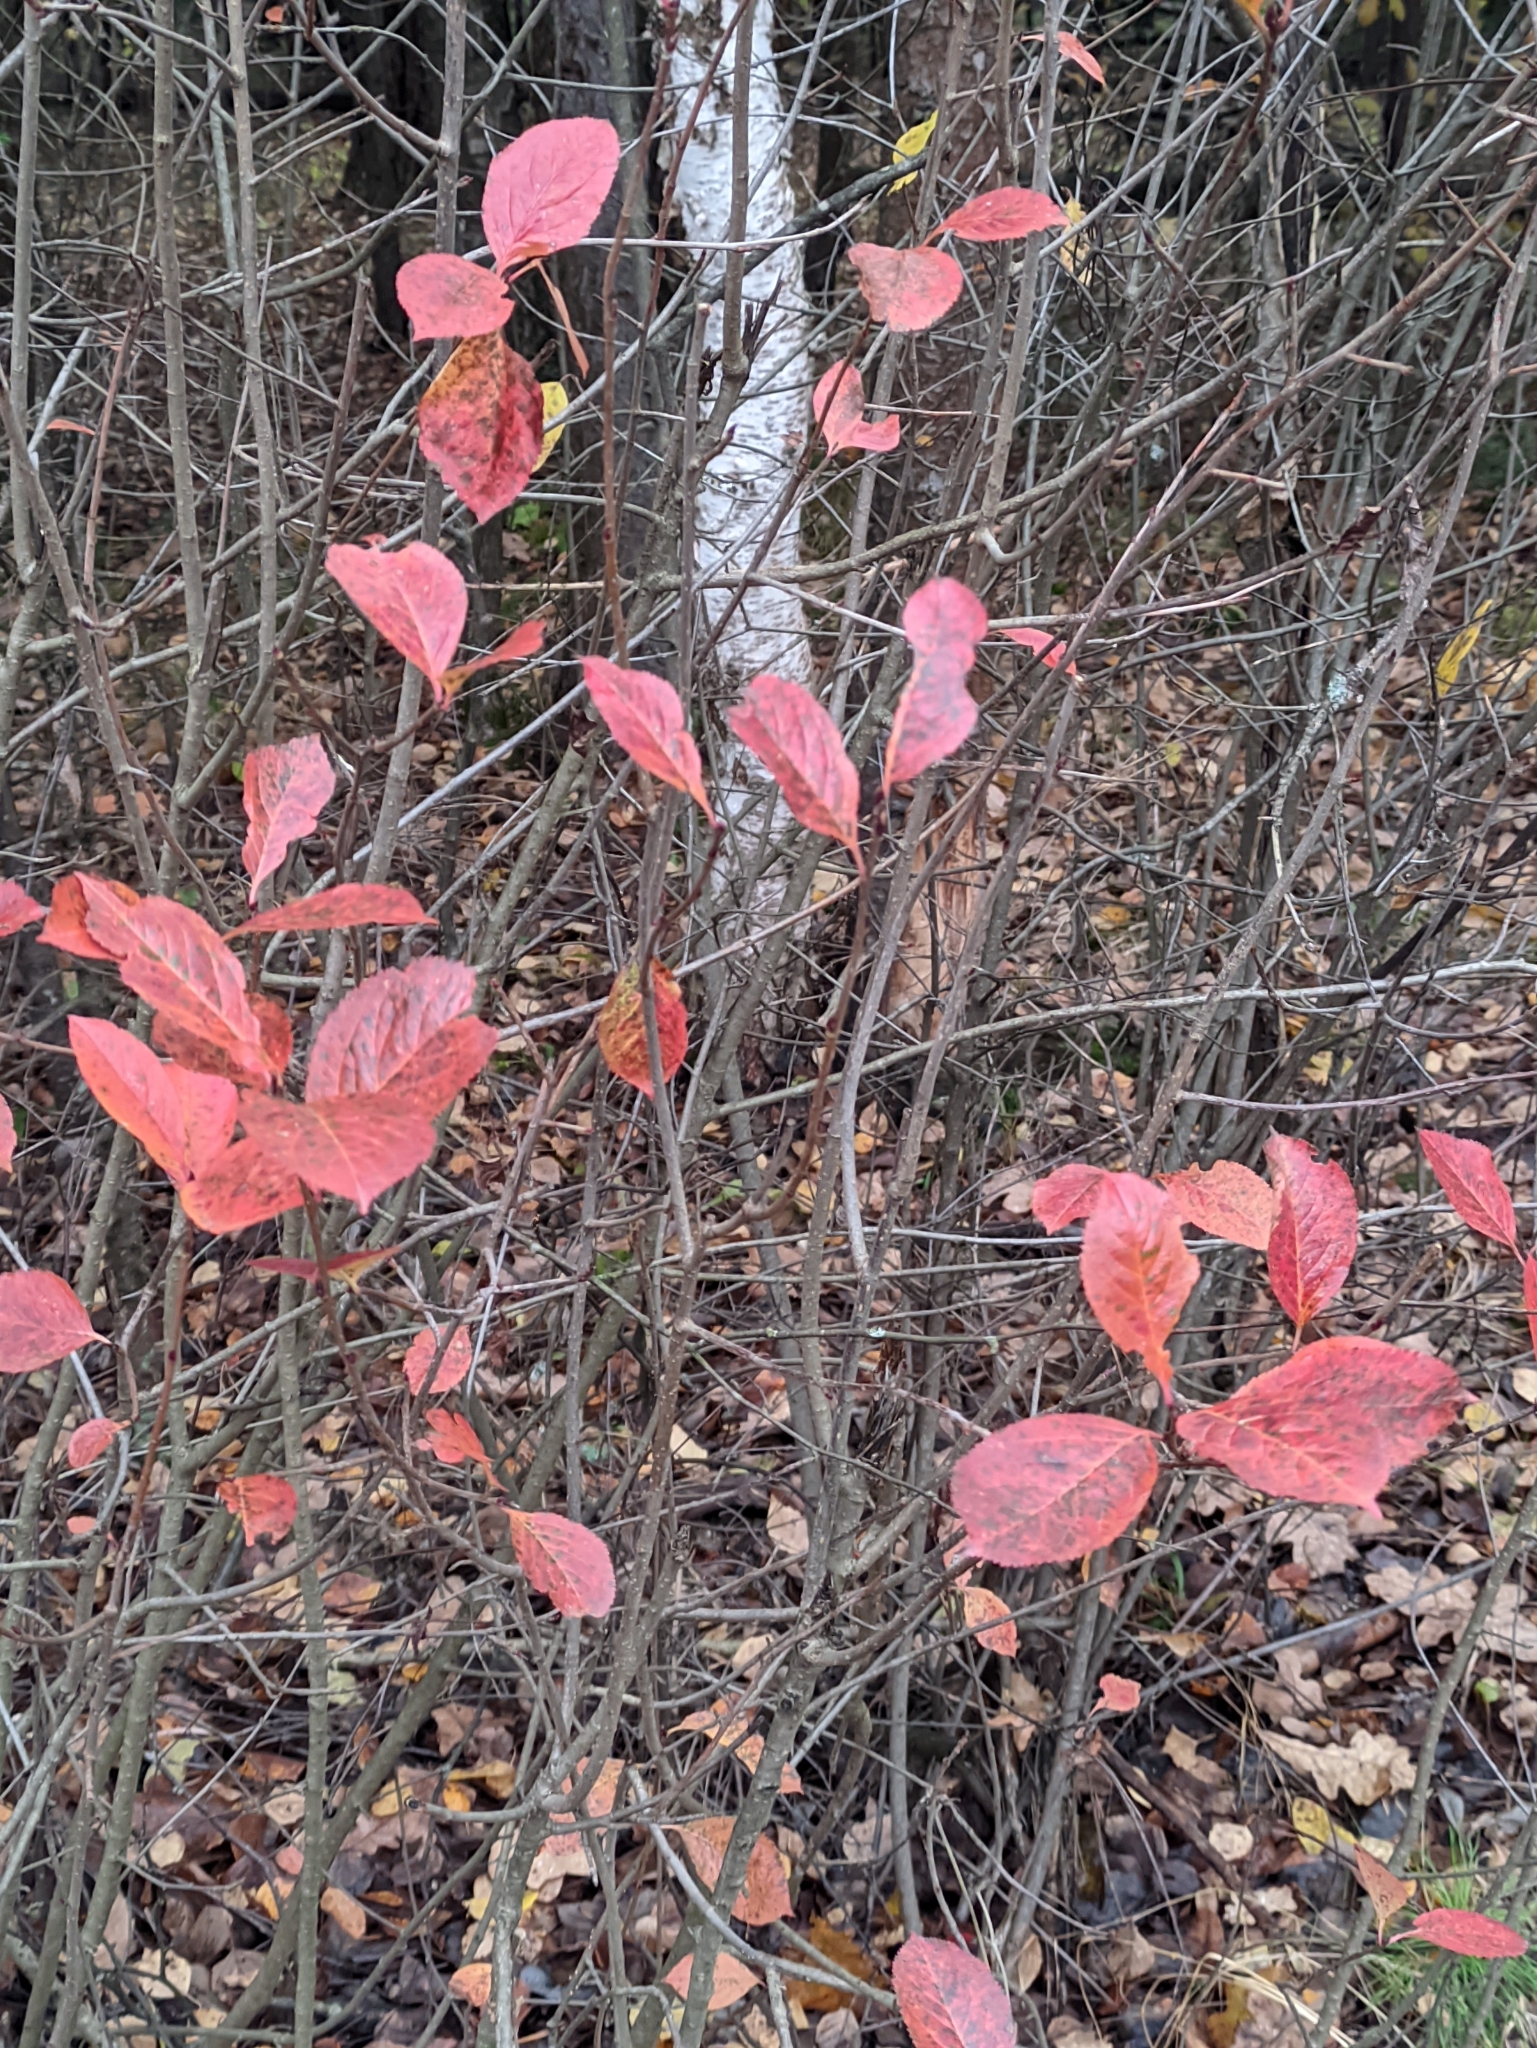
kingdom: Plantae
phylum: Tracheophyta
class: Magnoliopsida
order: Rosales
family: Rosaceae
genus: Sorbaronia
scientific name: Sorbaronia arsenii
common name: Arsène's mountain-ash
